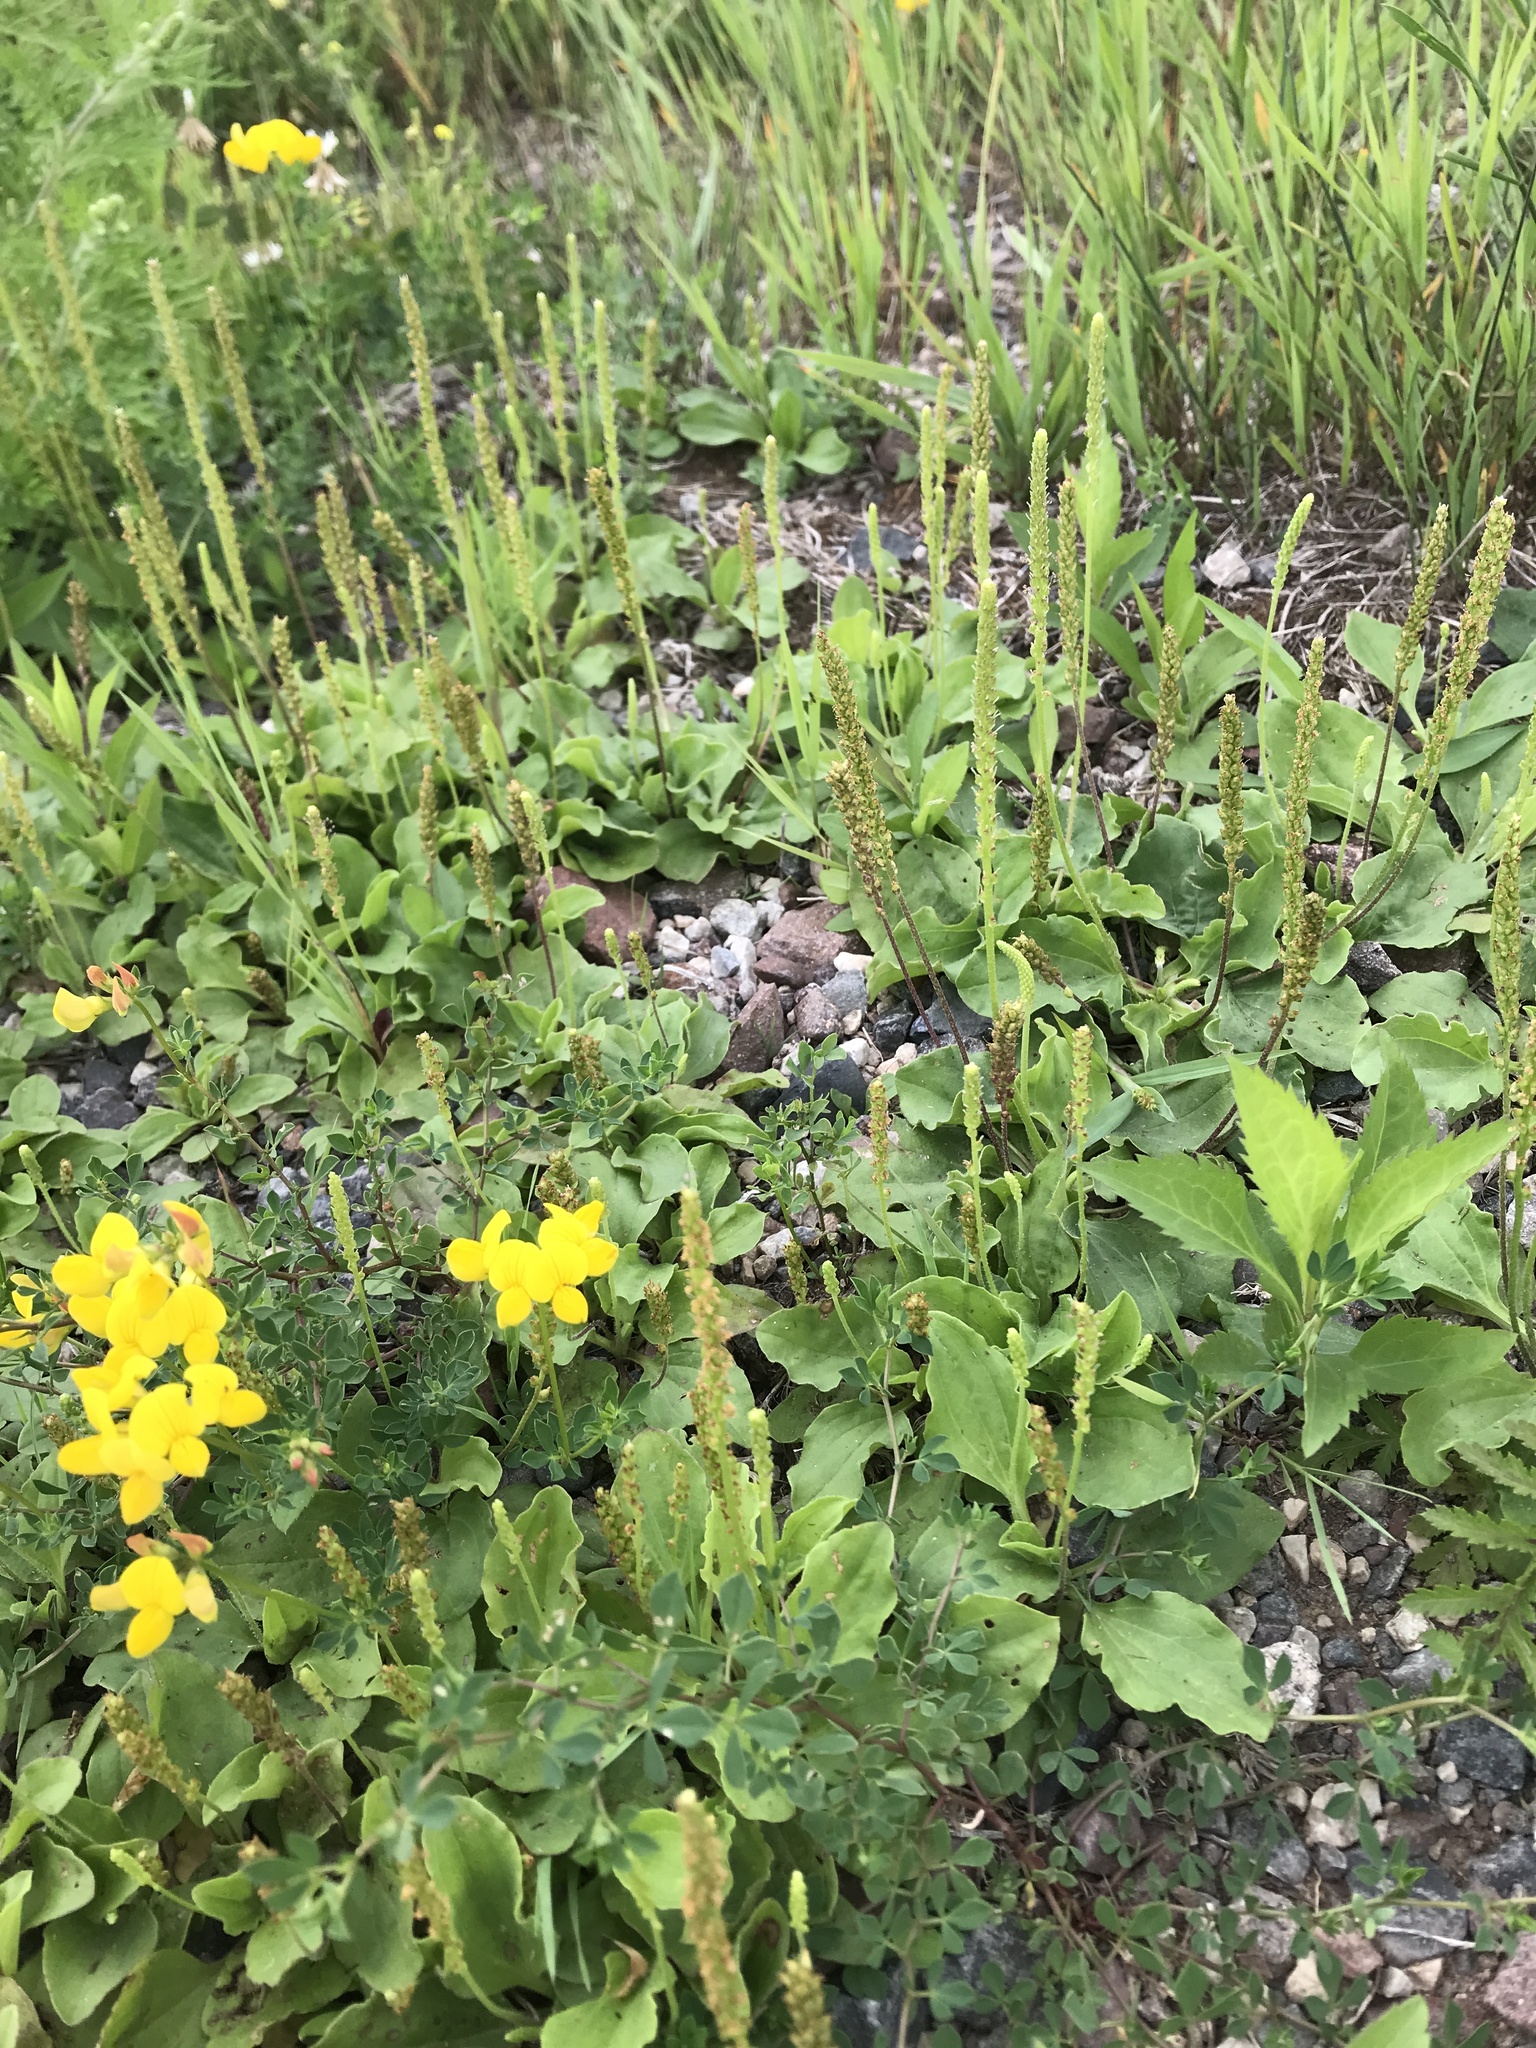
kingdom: Plantae
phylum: Tracheophyta
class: Magnoliopsida
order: Lamiales
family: Plantaginaceae
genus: Plantago
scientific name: Plantago major
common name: Common plantain
